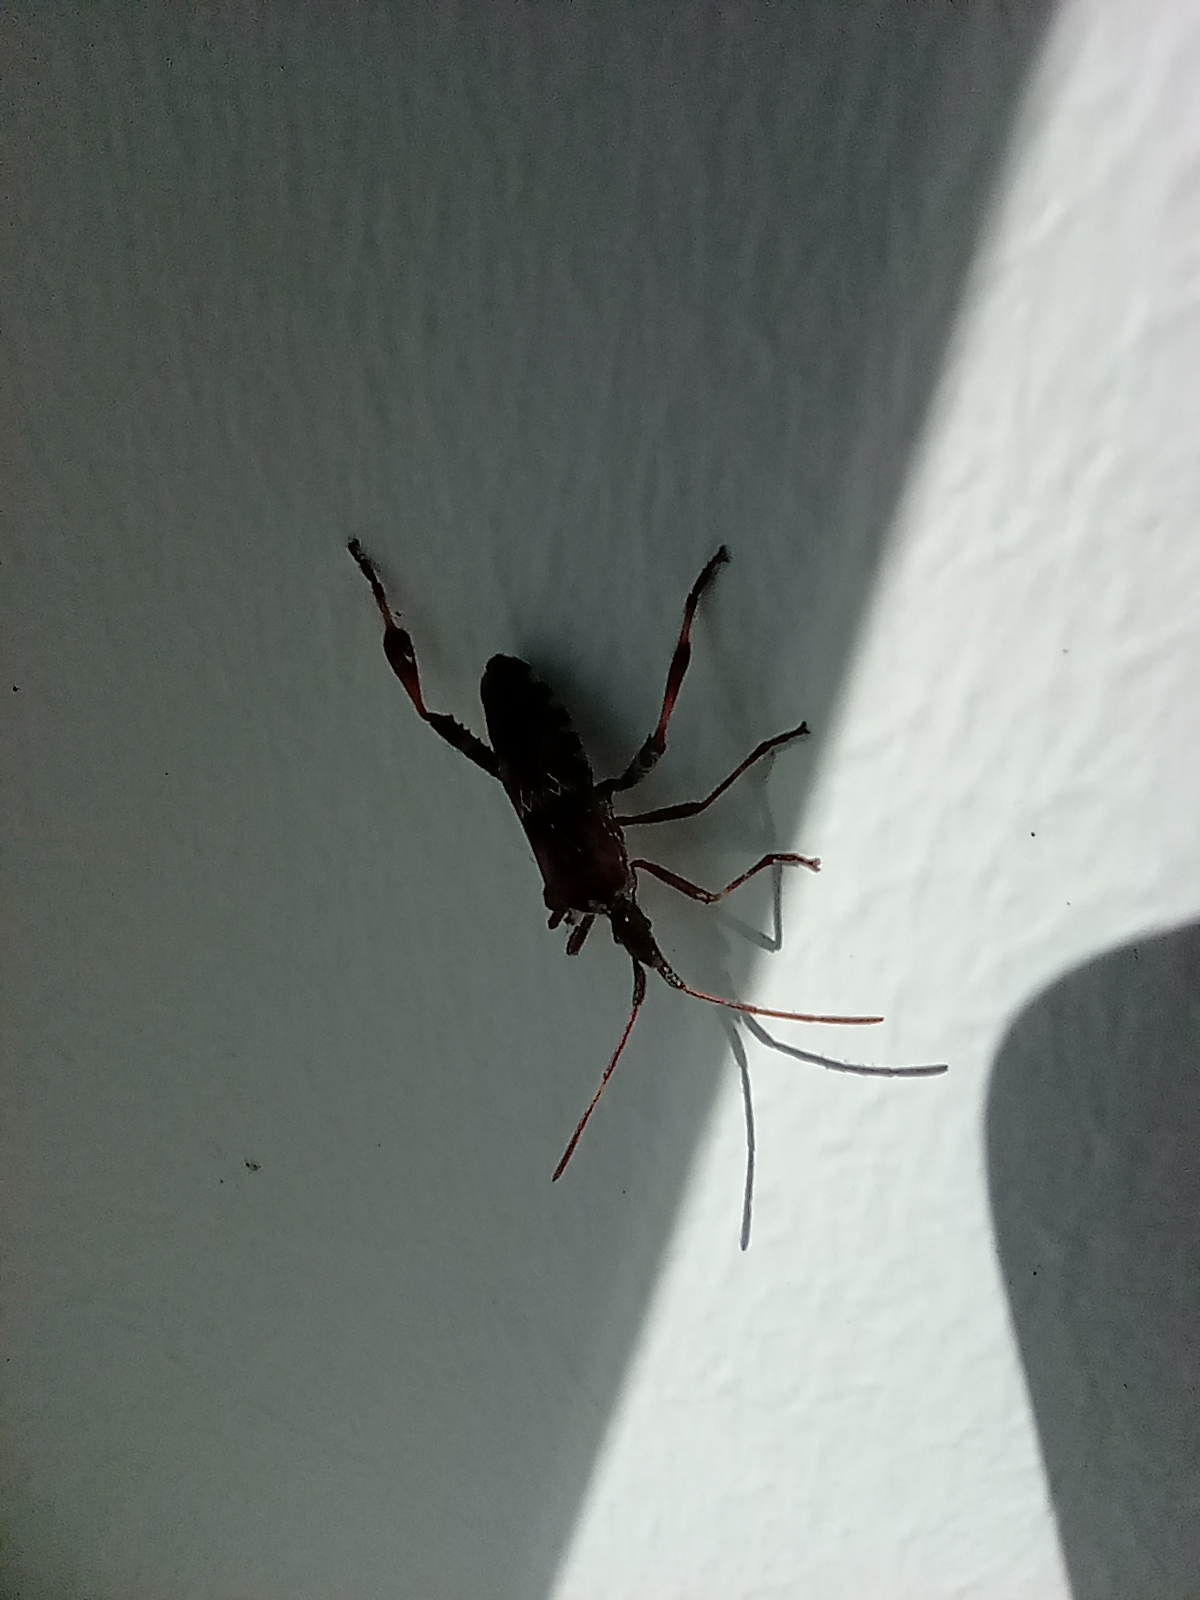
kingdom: Animalia
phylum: Arthropoda
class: Insecta
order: Hemiptera
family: Coreidae
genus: Leptoglossus
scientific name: Leptoglossus occidentalis
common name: Western conifer-seed bug
